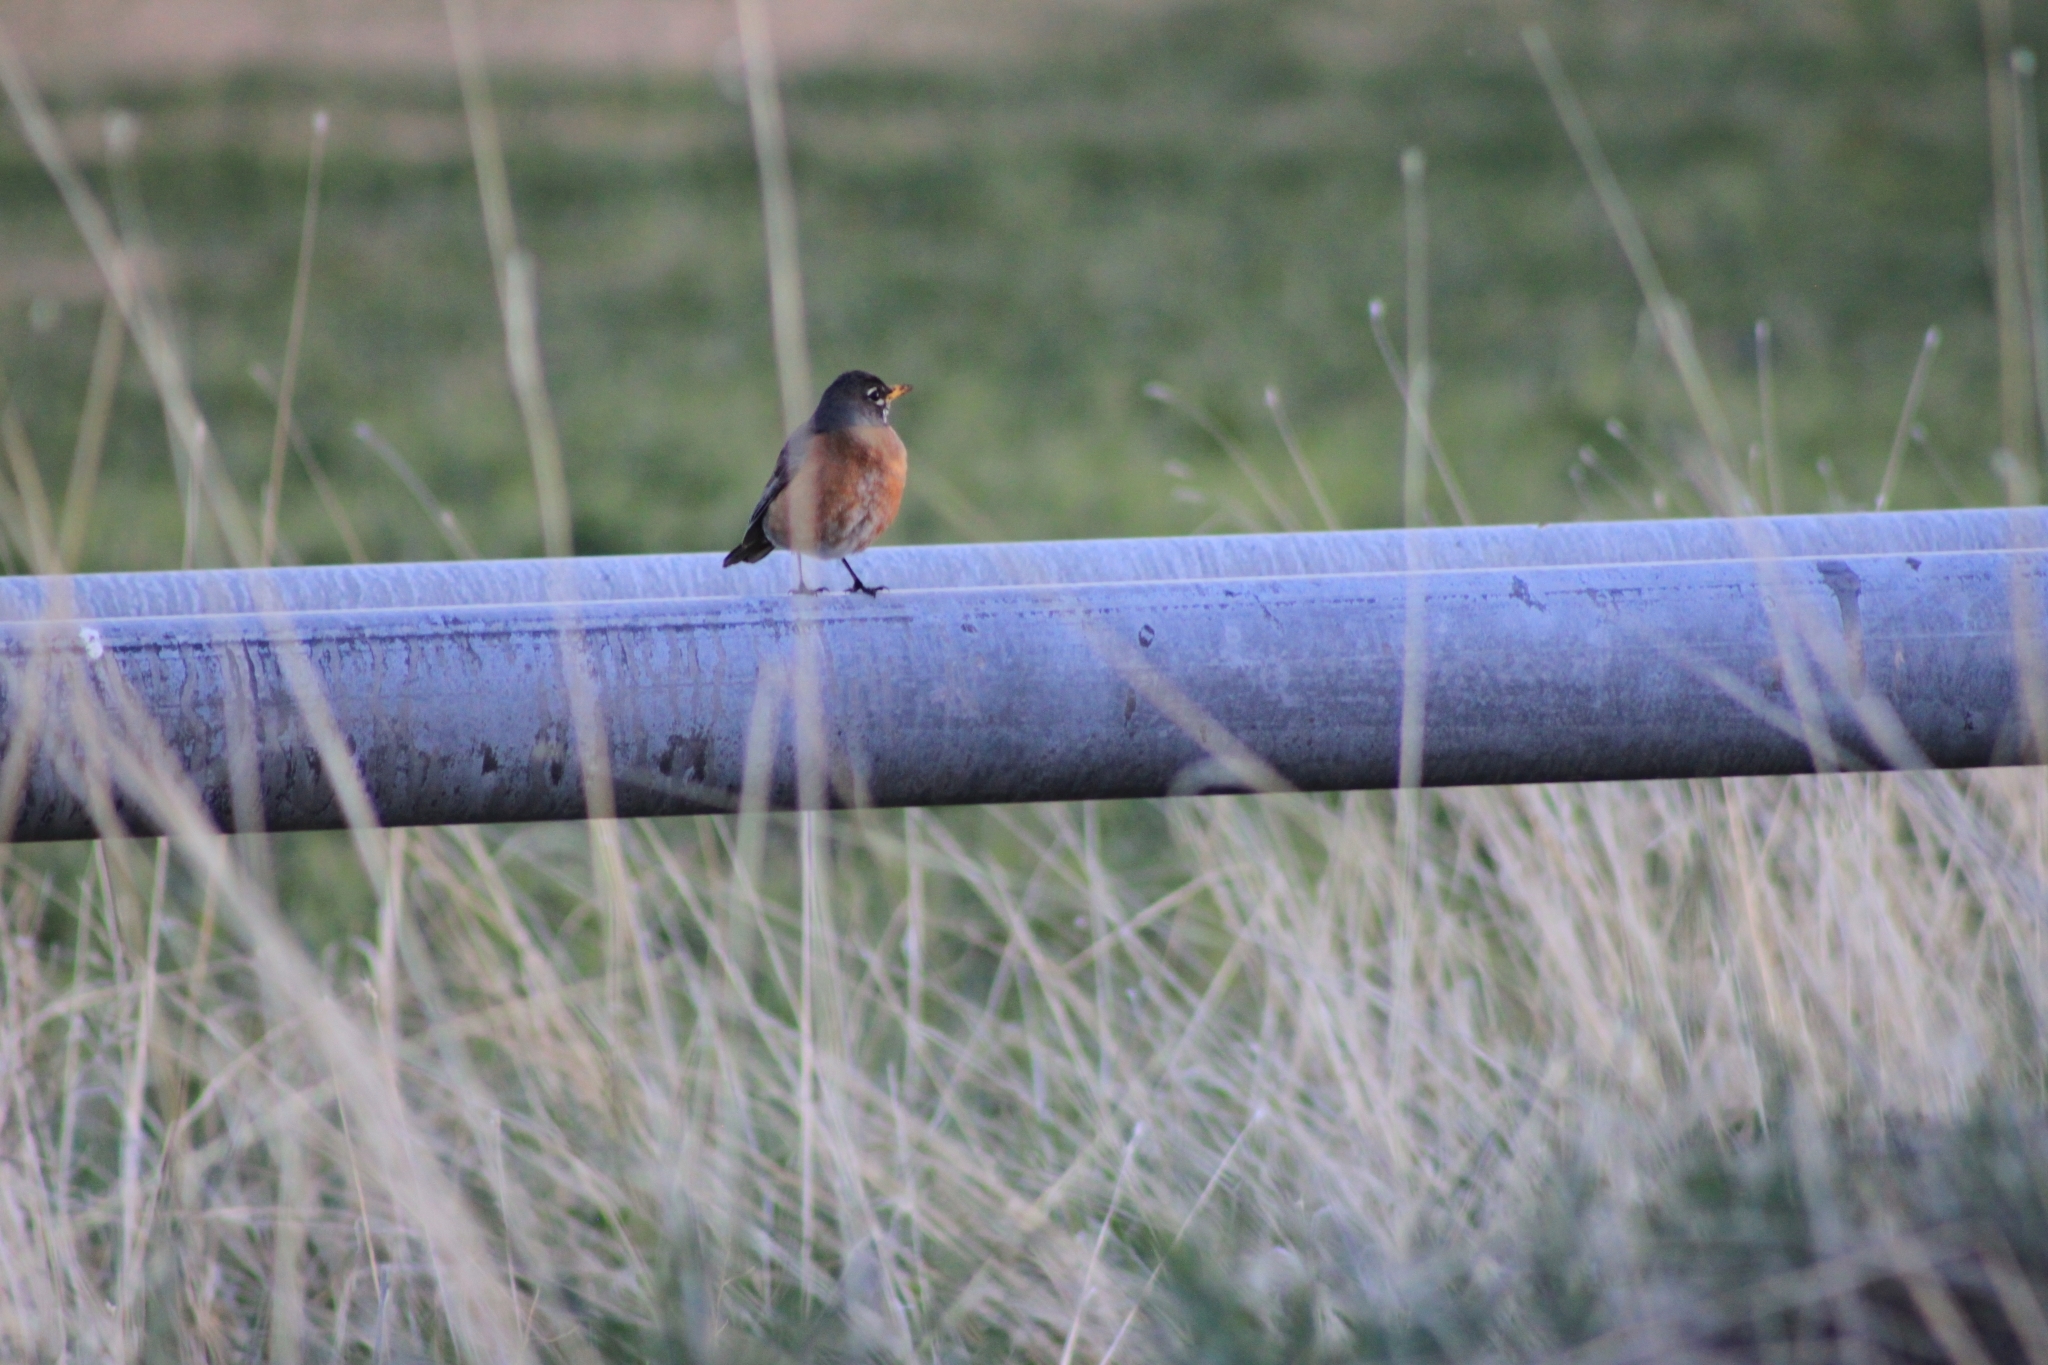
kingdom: Animalia
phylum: Chordata
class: Aves
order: Passeriformes
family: Turdidae
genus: Turdus
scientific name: Turdus migratorius
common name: American robin
